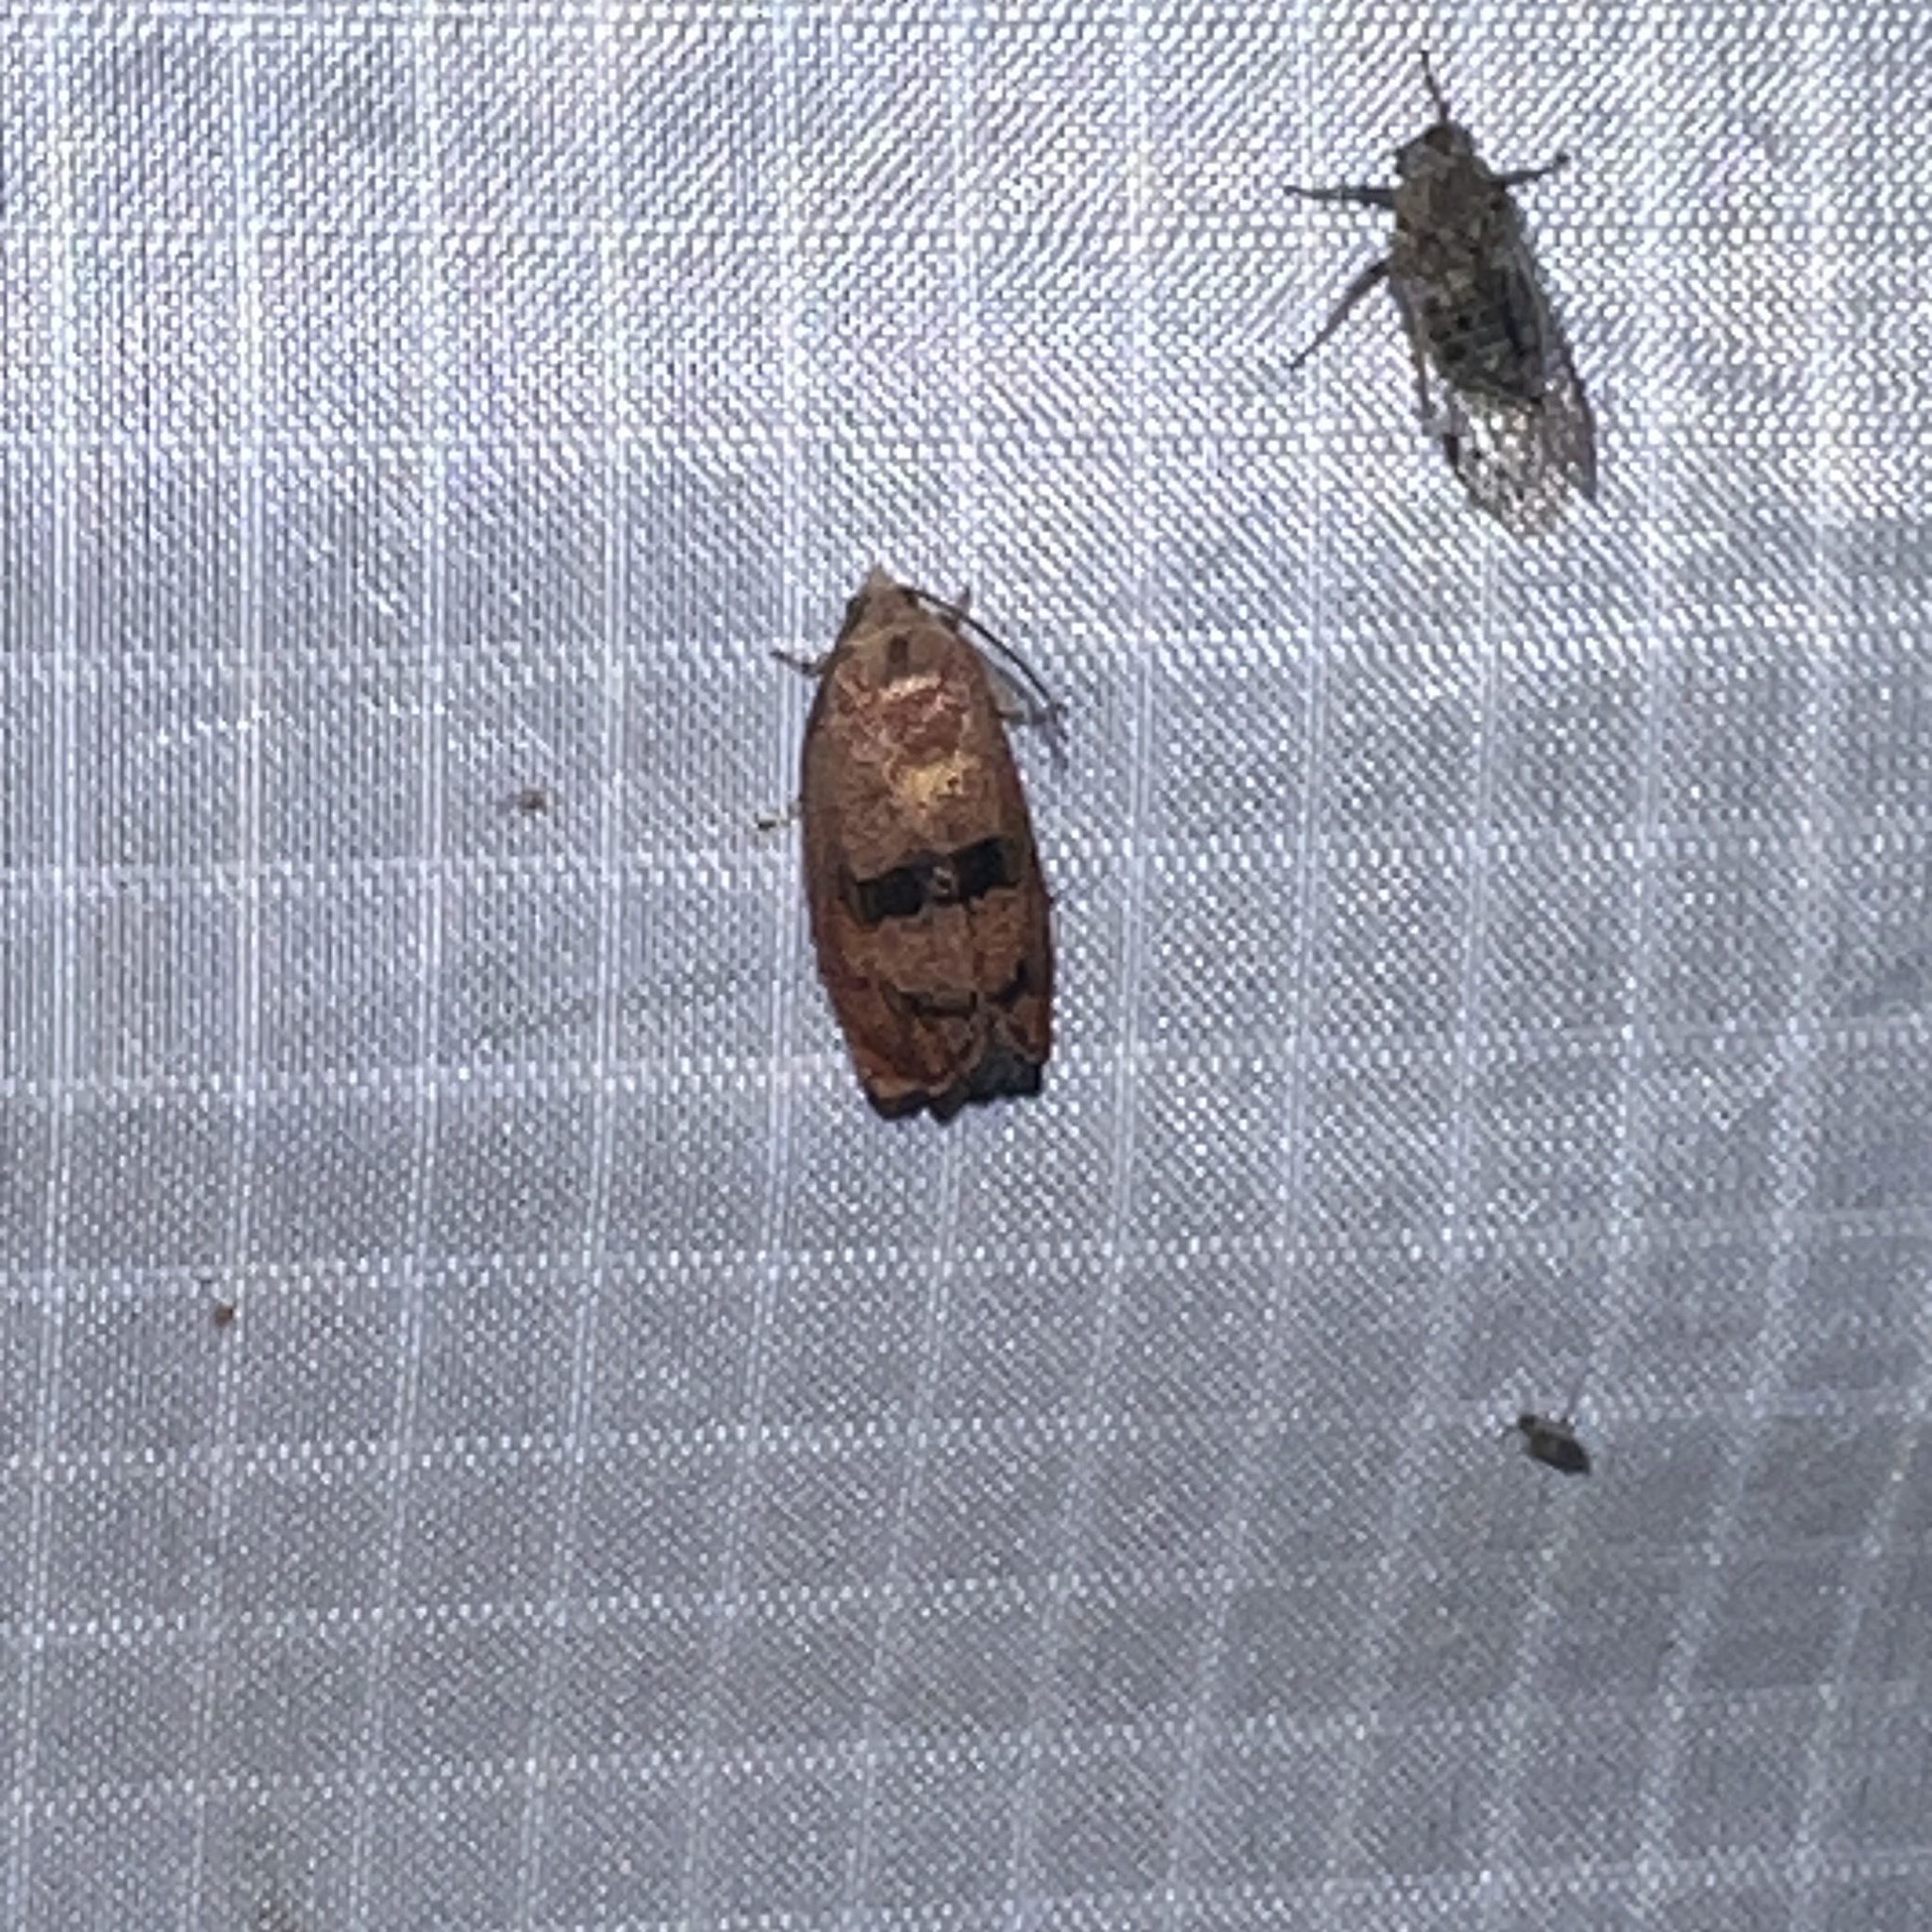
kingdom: Animalia
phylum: Arthropoda
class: Insecta
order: Lepidoptera
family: Tortricidae
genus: Cydia
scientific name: Cydia latiferreana
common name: Filbertworm moth
